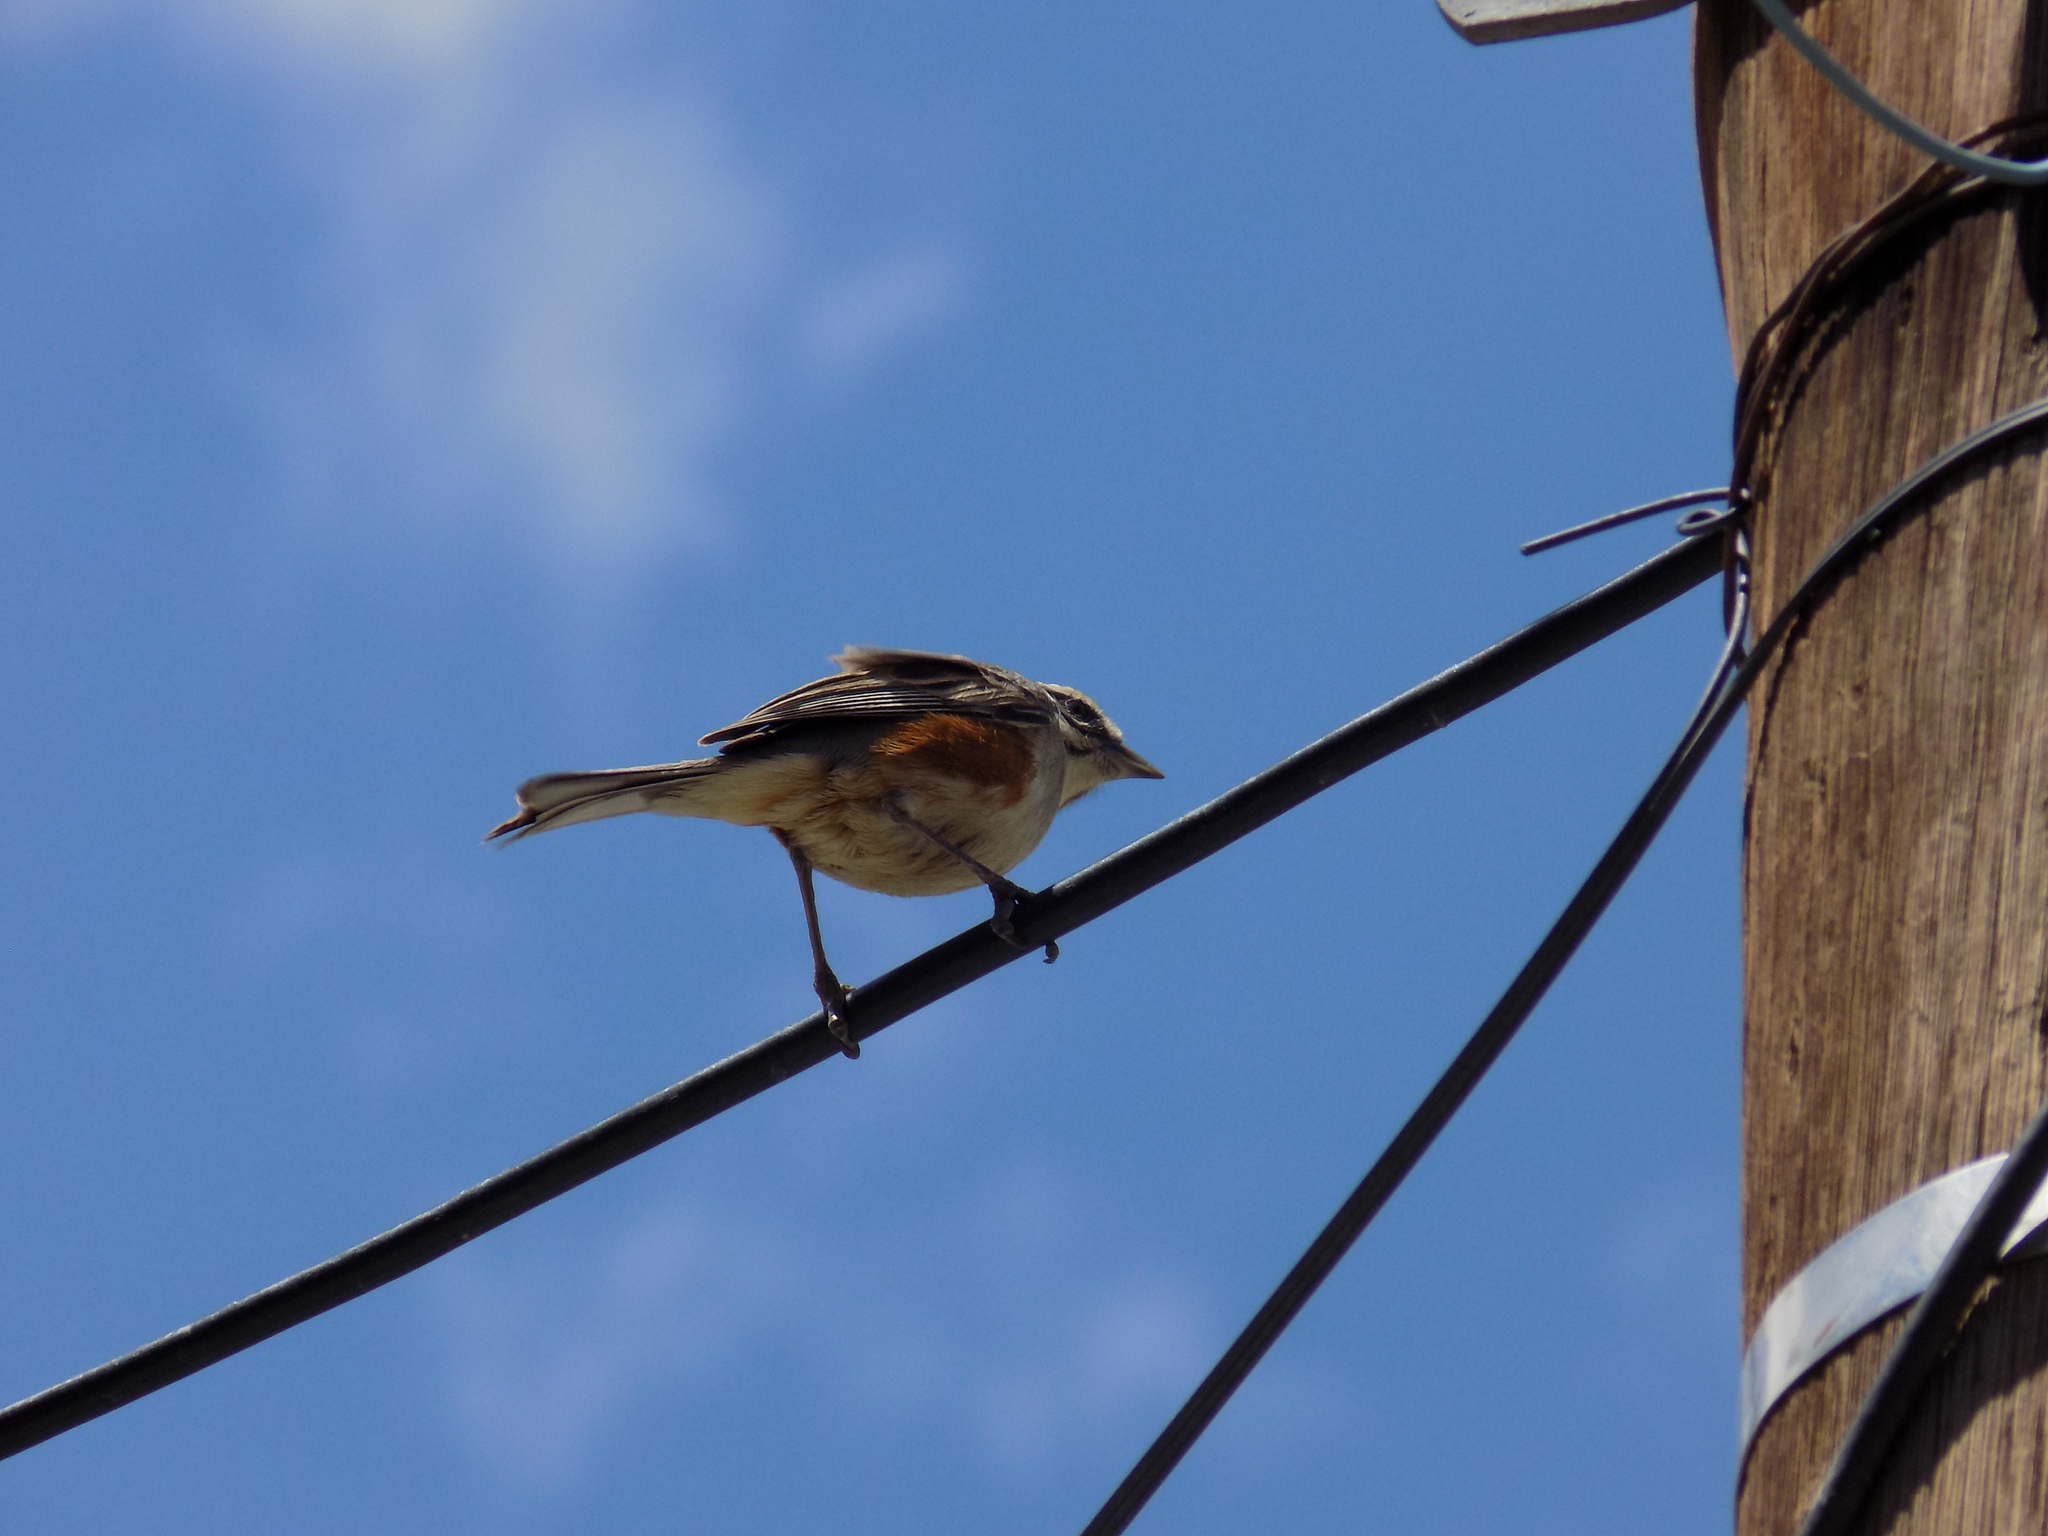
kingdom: Animalia
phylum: Chordata
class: Aves
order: Passeriformes
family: Thraupidae
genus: Poospizopsis
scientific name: Poospizopsis hypocondria
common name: Rufous-sided warbling-finch
